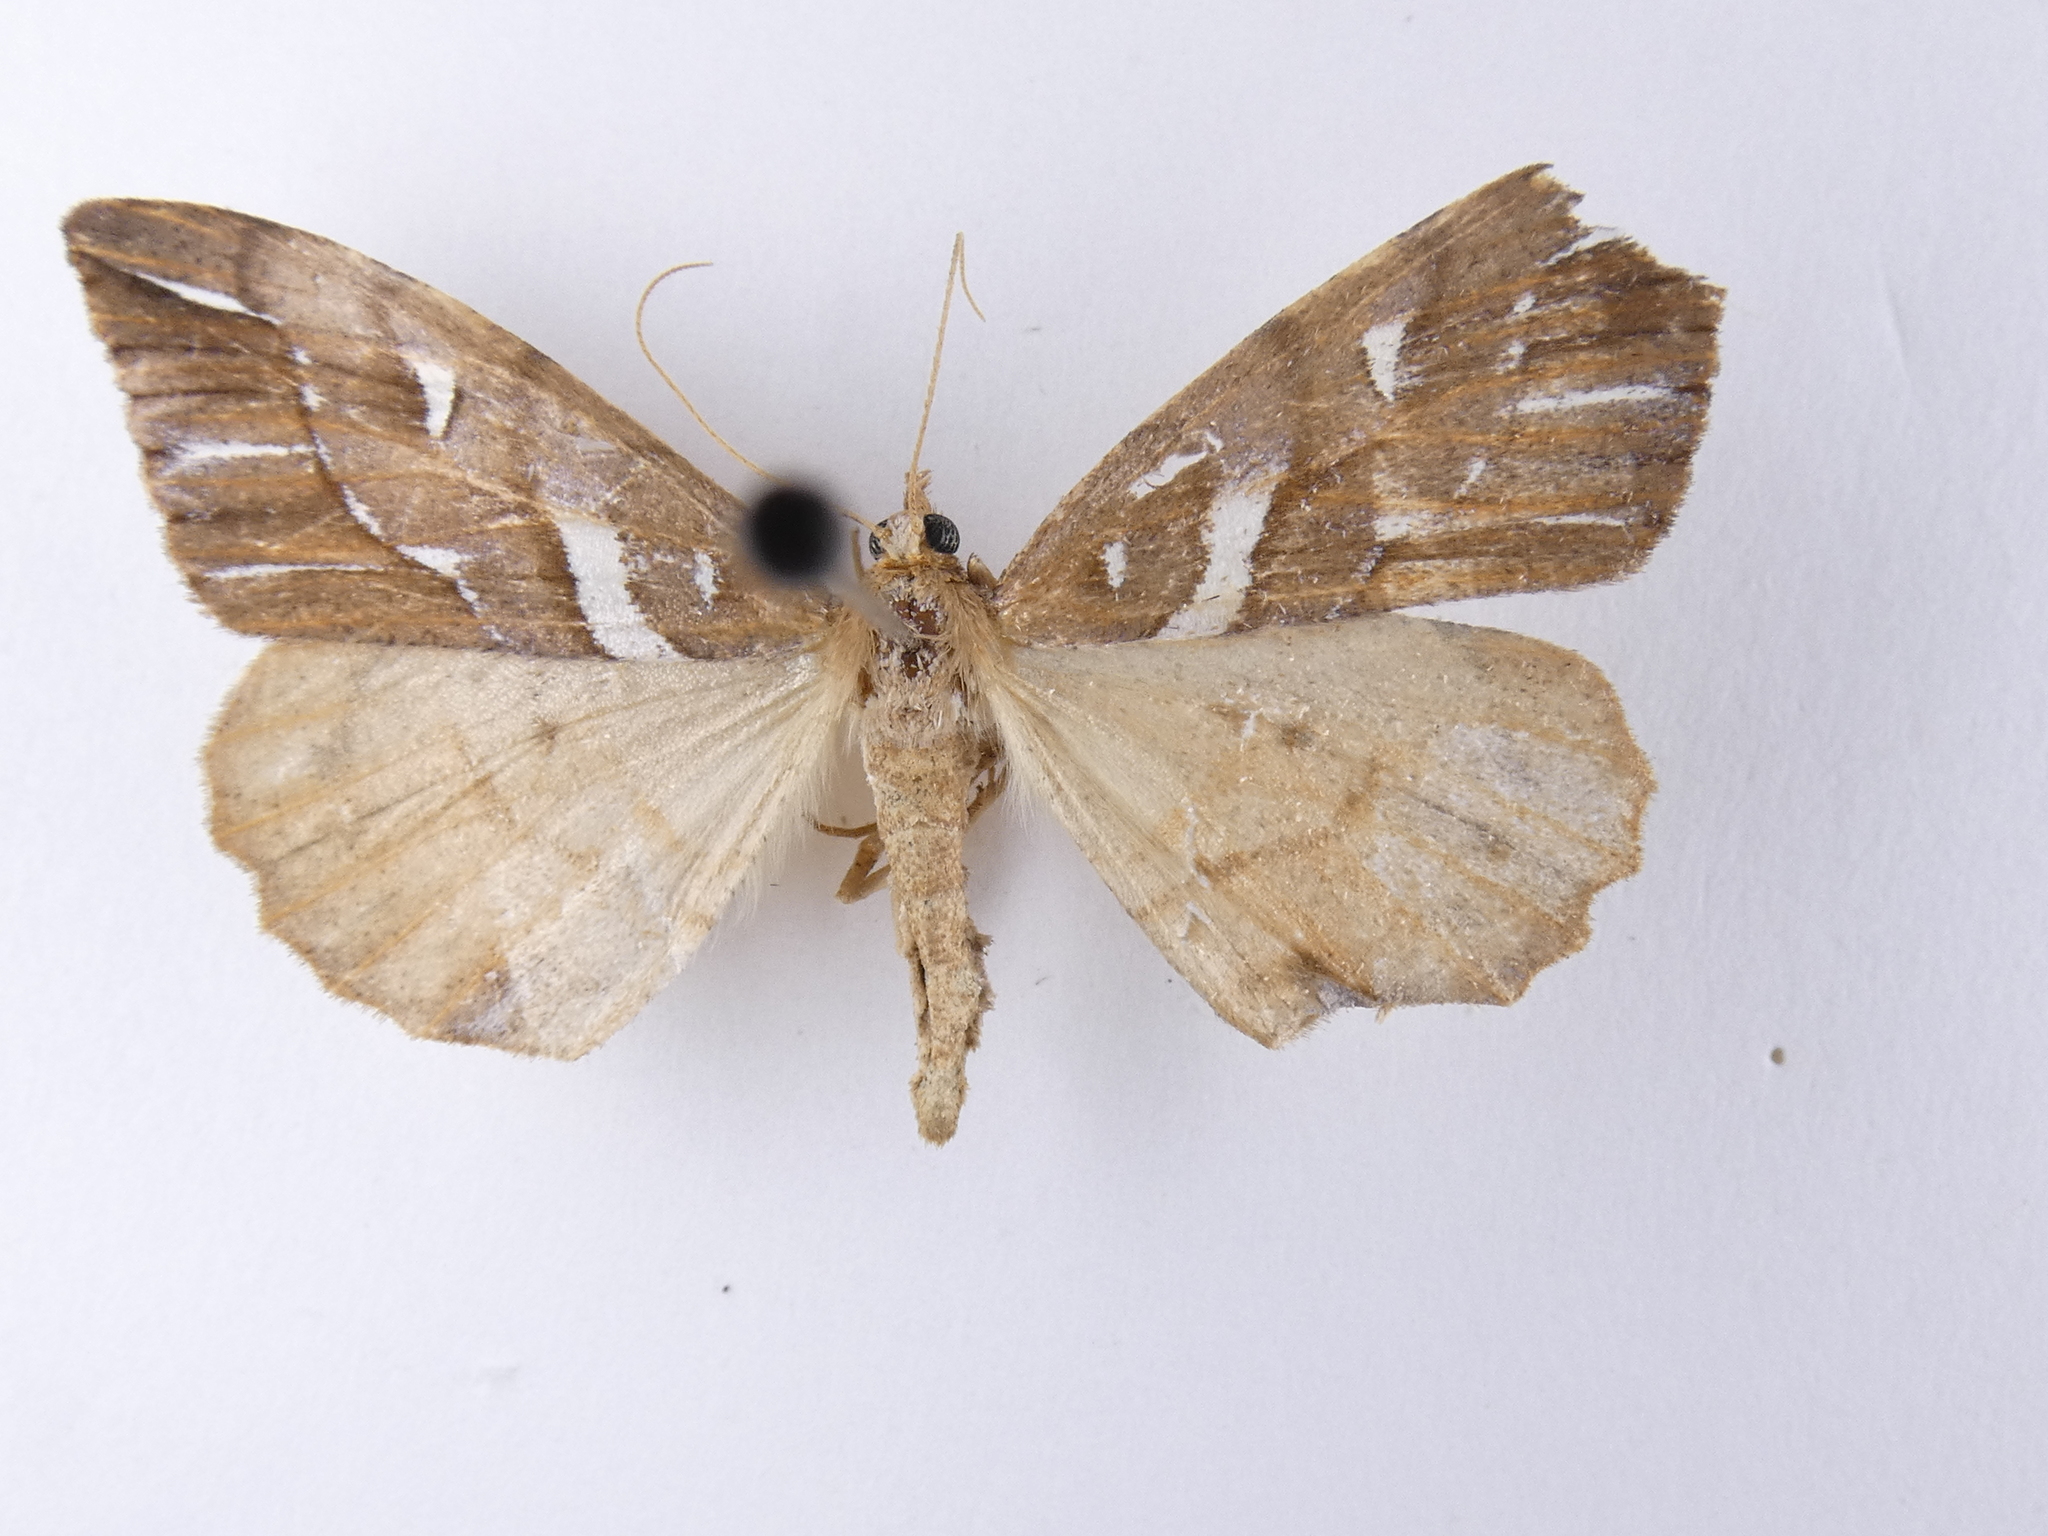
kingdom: Animalia
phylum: Arthropoda
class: Insecta
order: Lepidoptera
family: Geometridae
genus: Chalastra
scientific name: Chalastra aristarcha
